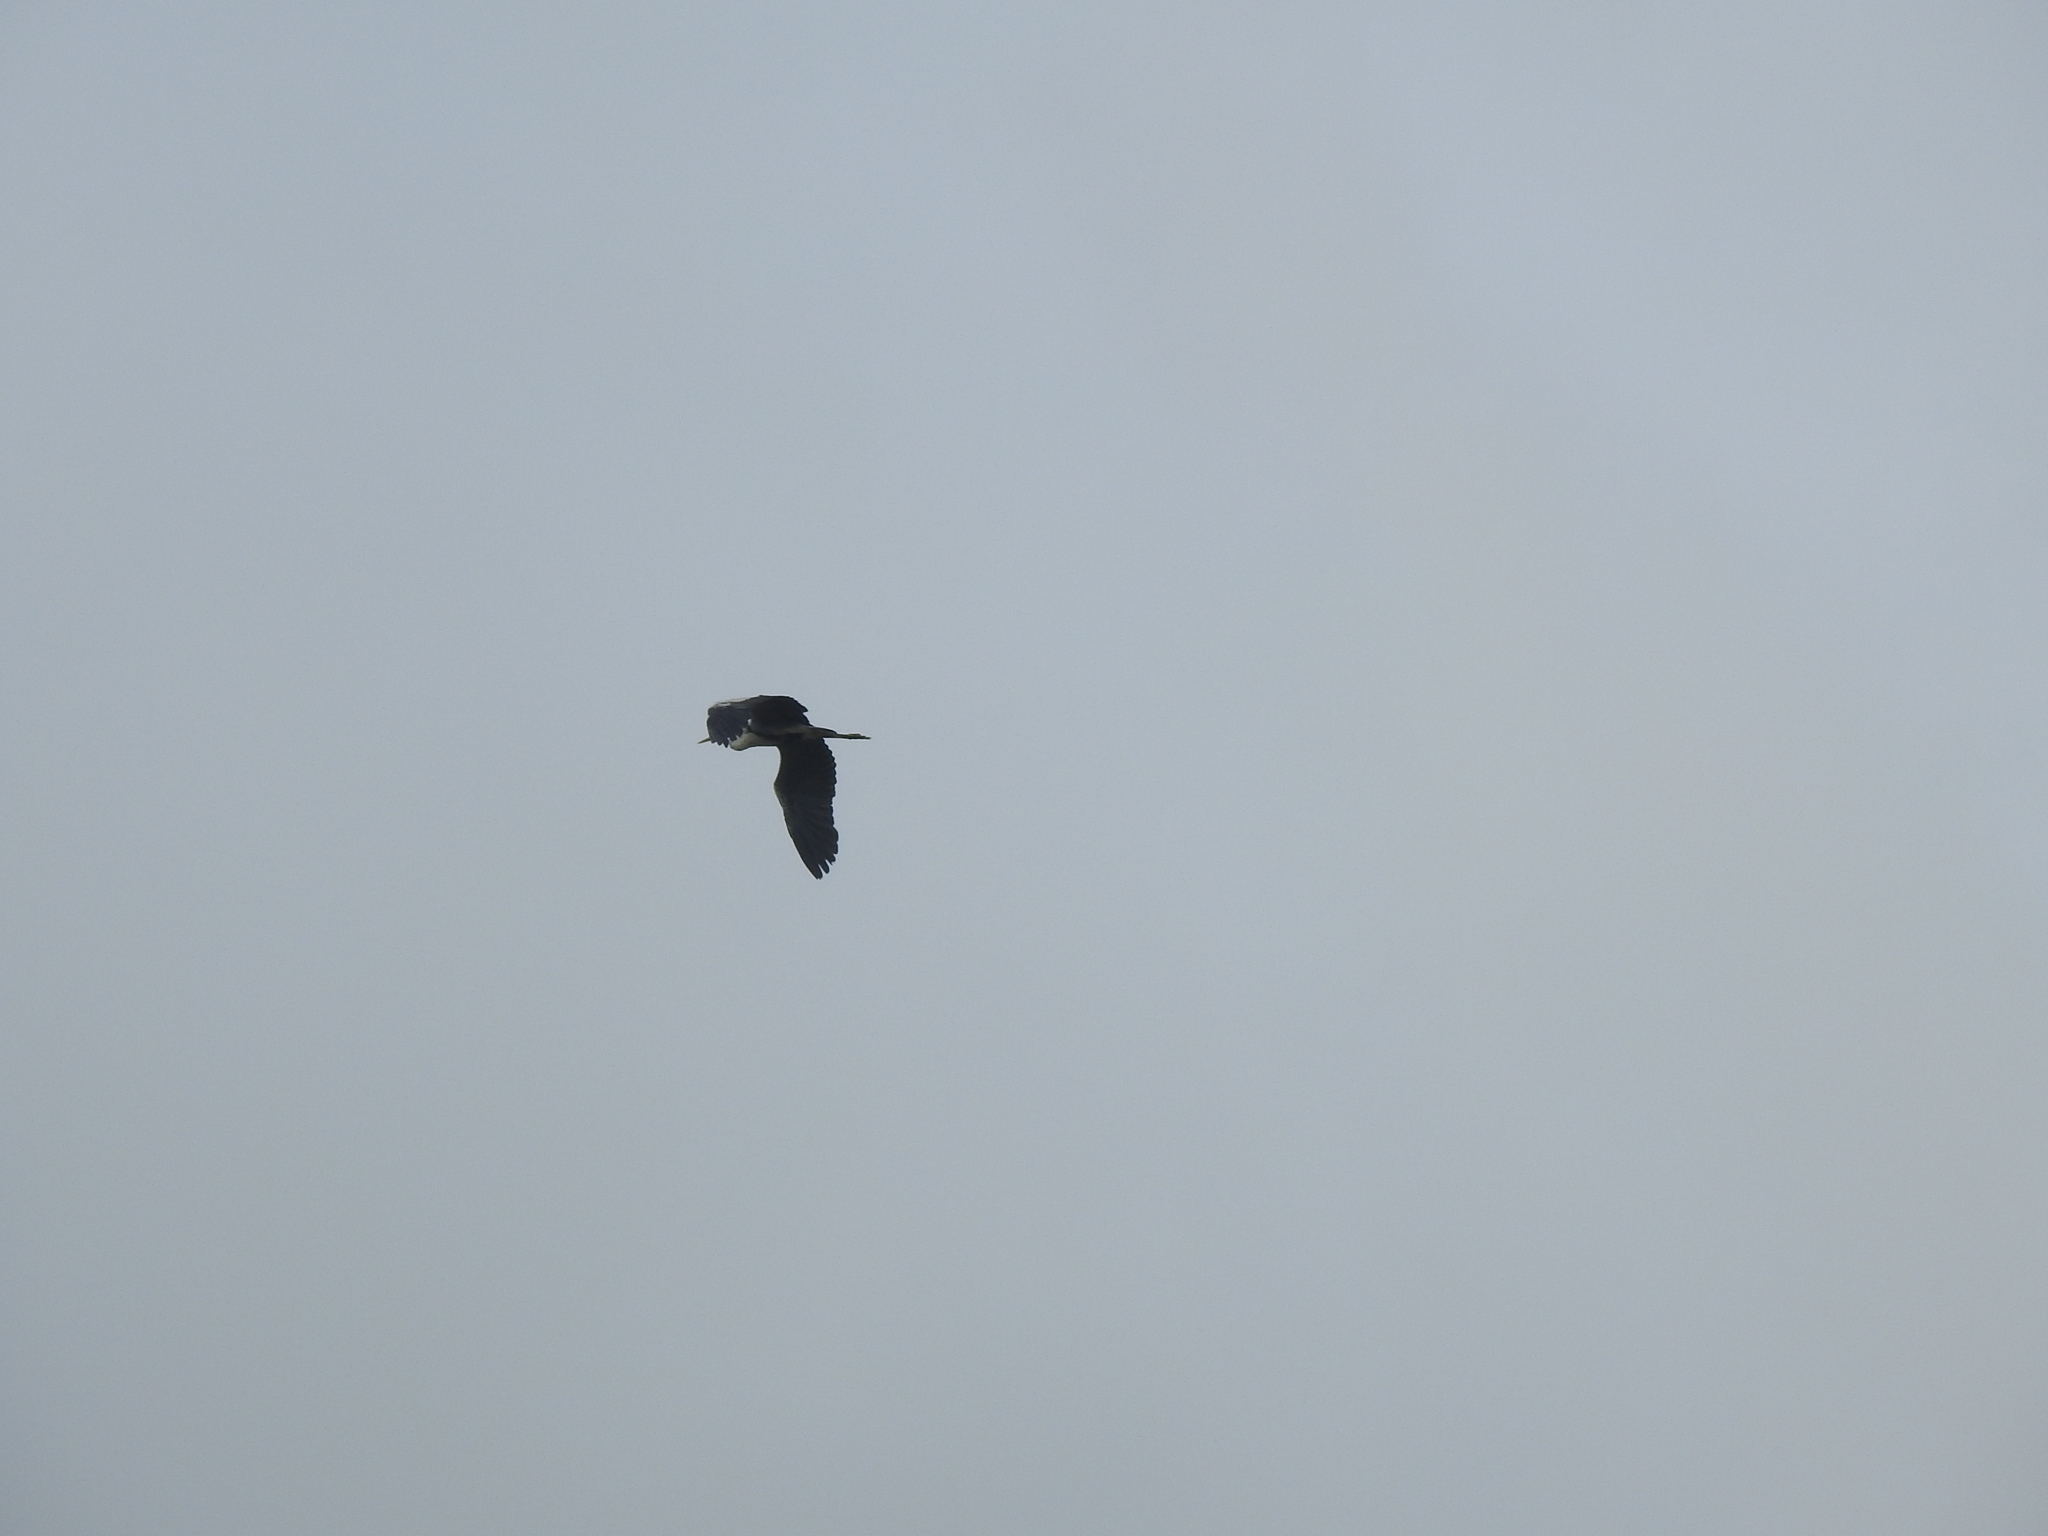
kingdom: Animalia
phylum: Chordata
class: Aves
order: Pelecaniformes
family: Ardeidae
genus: Ardea
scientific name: Ardea cinerea
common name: Grey heron
